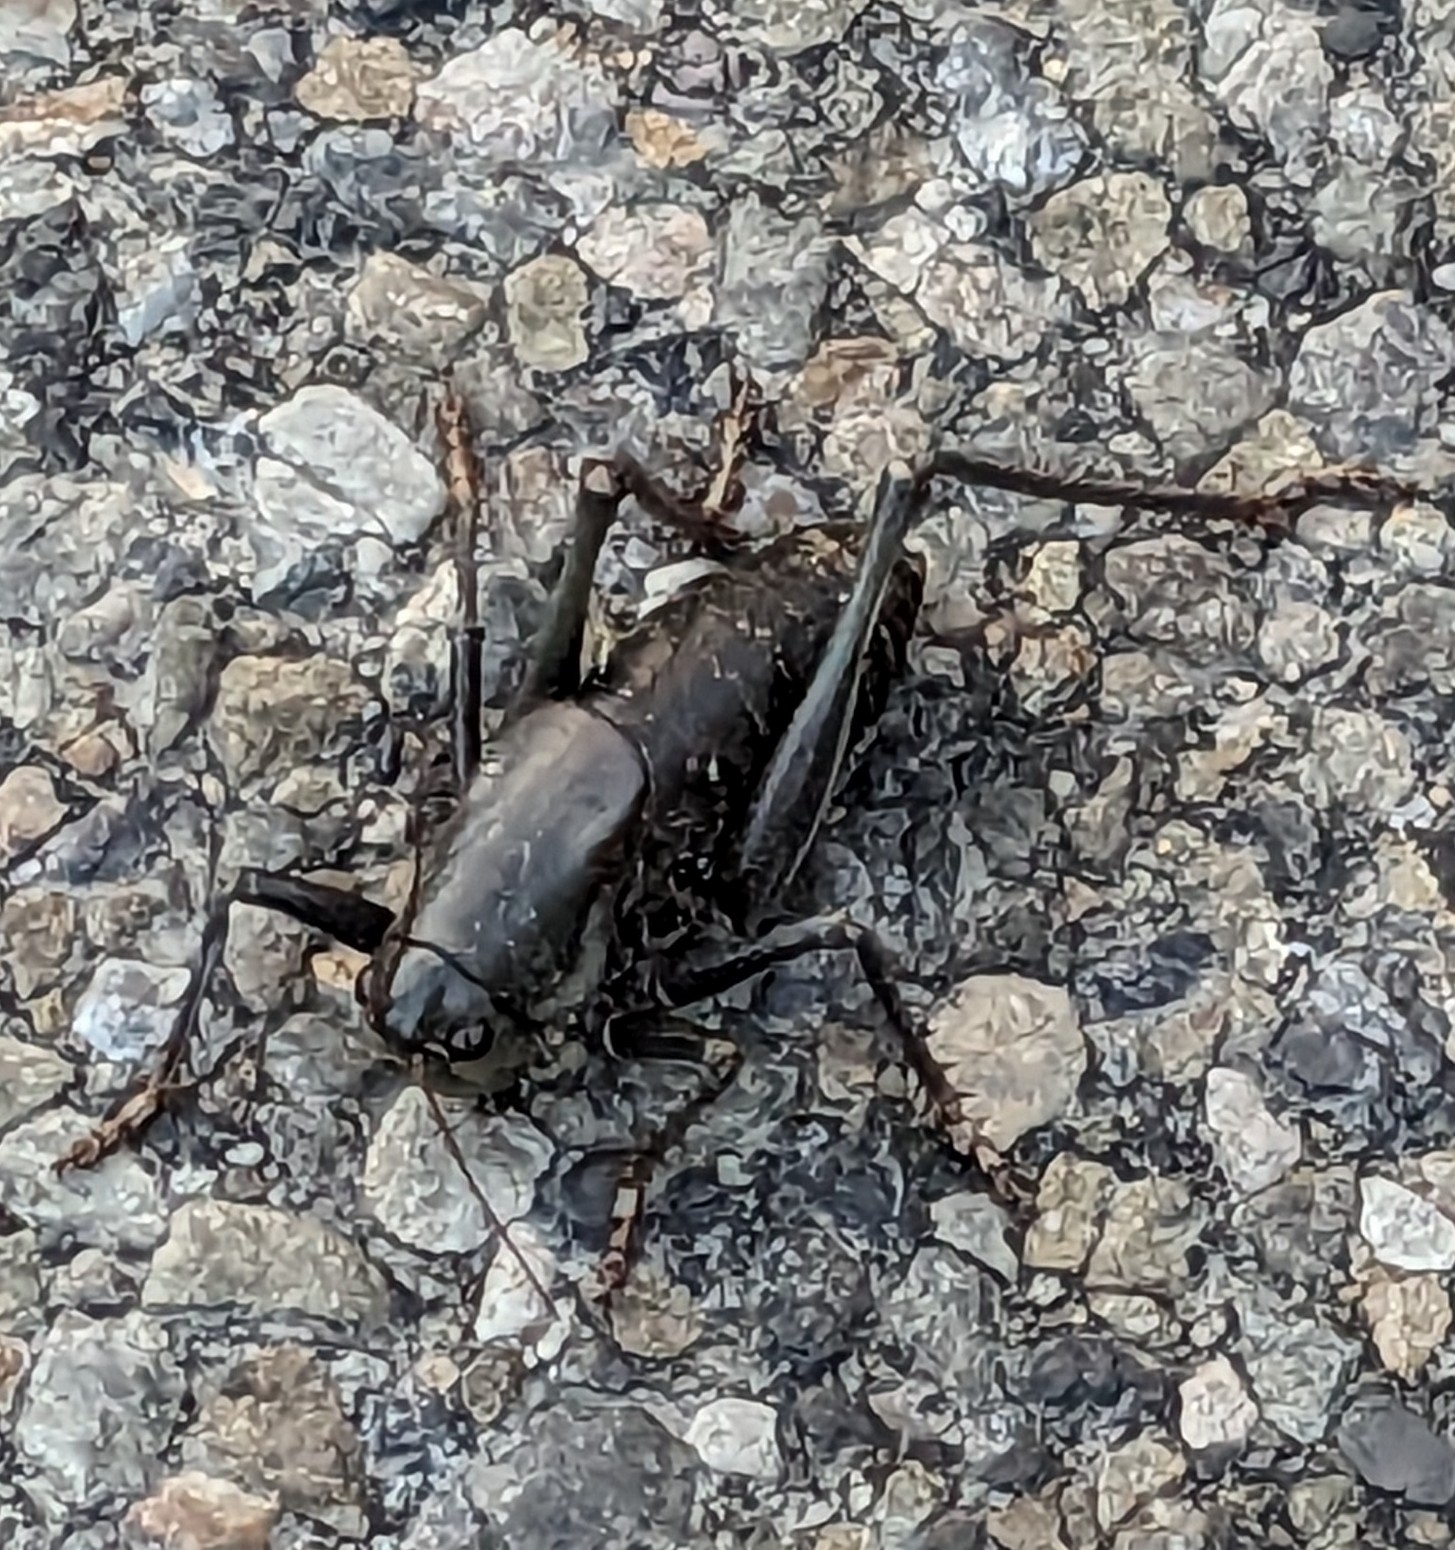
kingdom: Animalia
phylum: Arthropoda
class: Insecta
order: Orthoptera
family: Tettigoniidae
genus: Anabrus
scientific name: Anabrus simplex
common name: Mormon cricket
